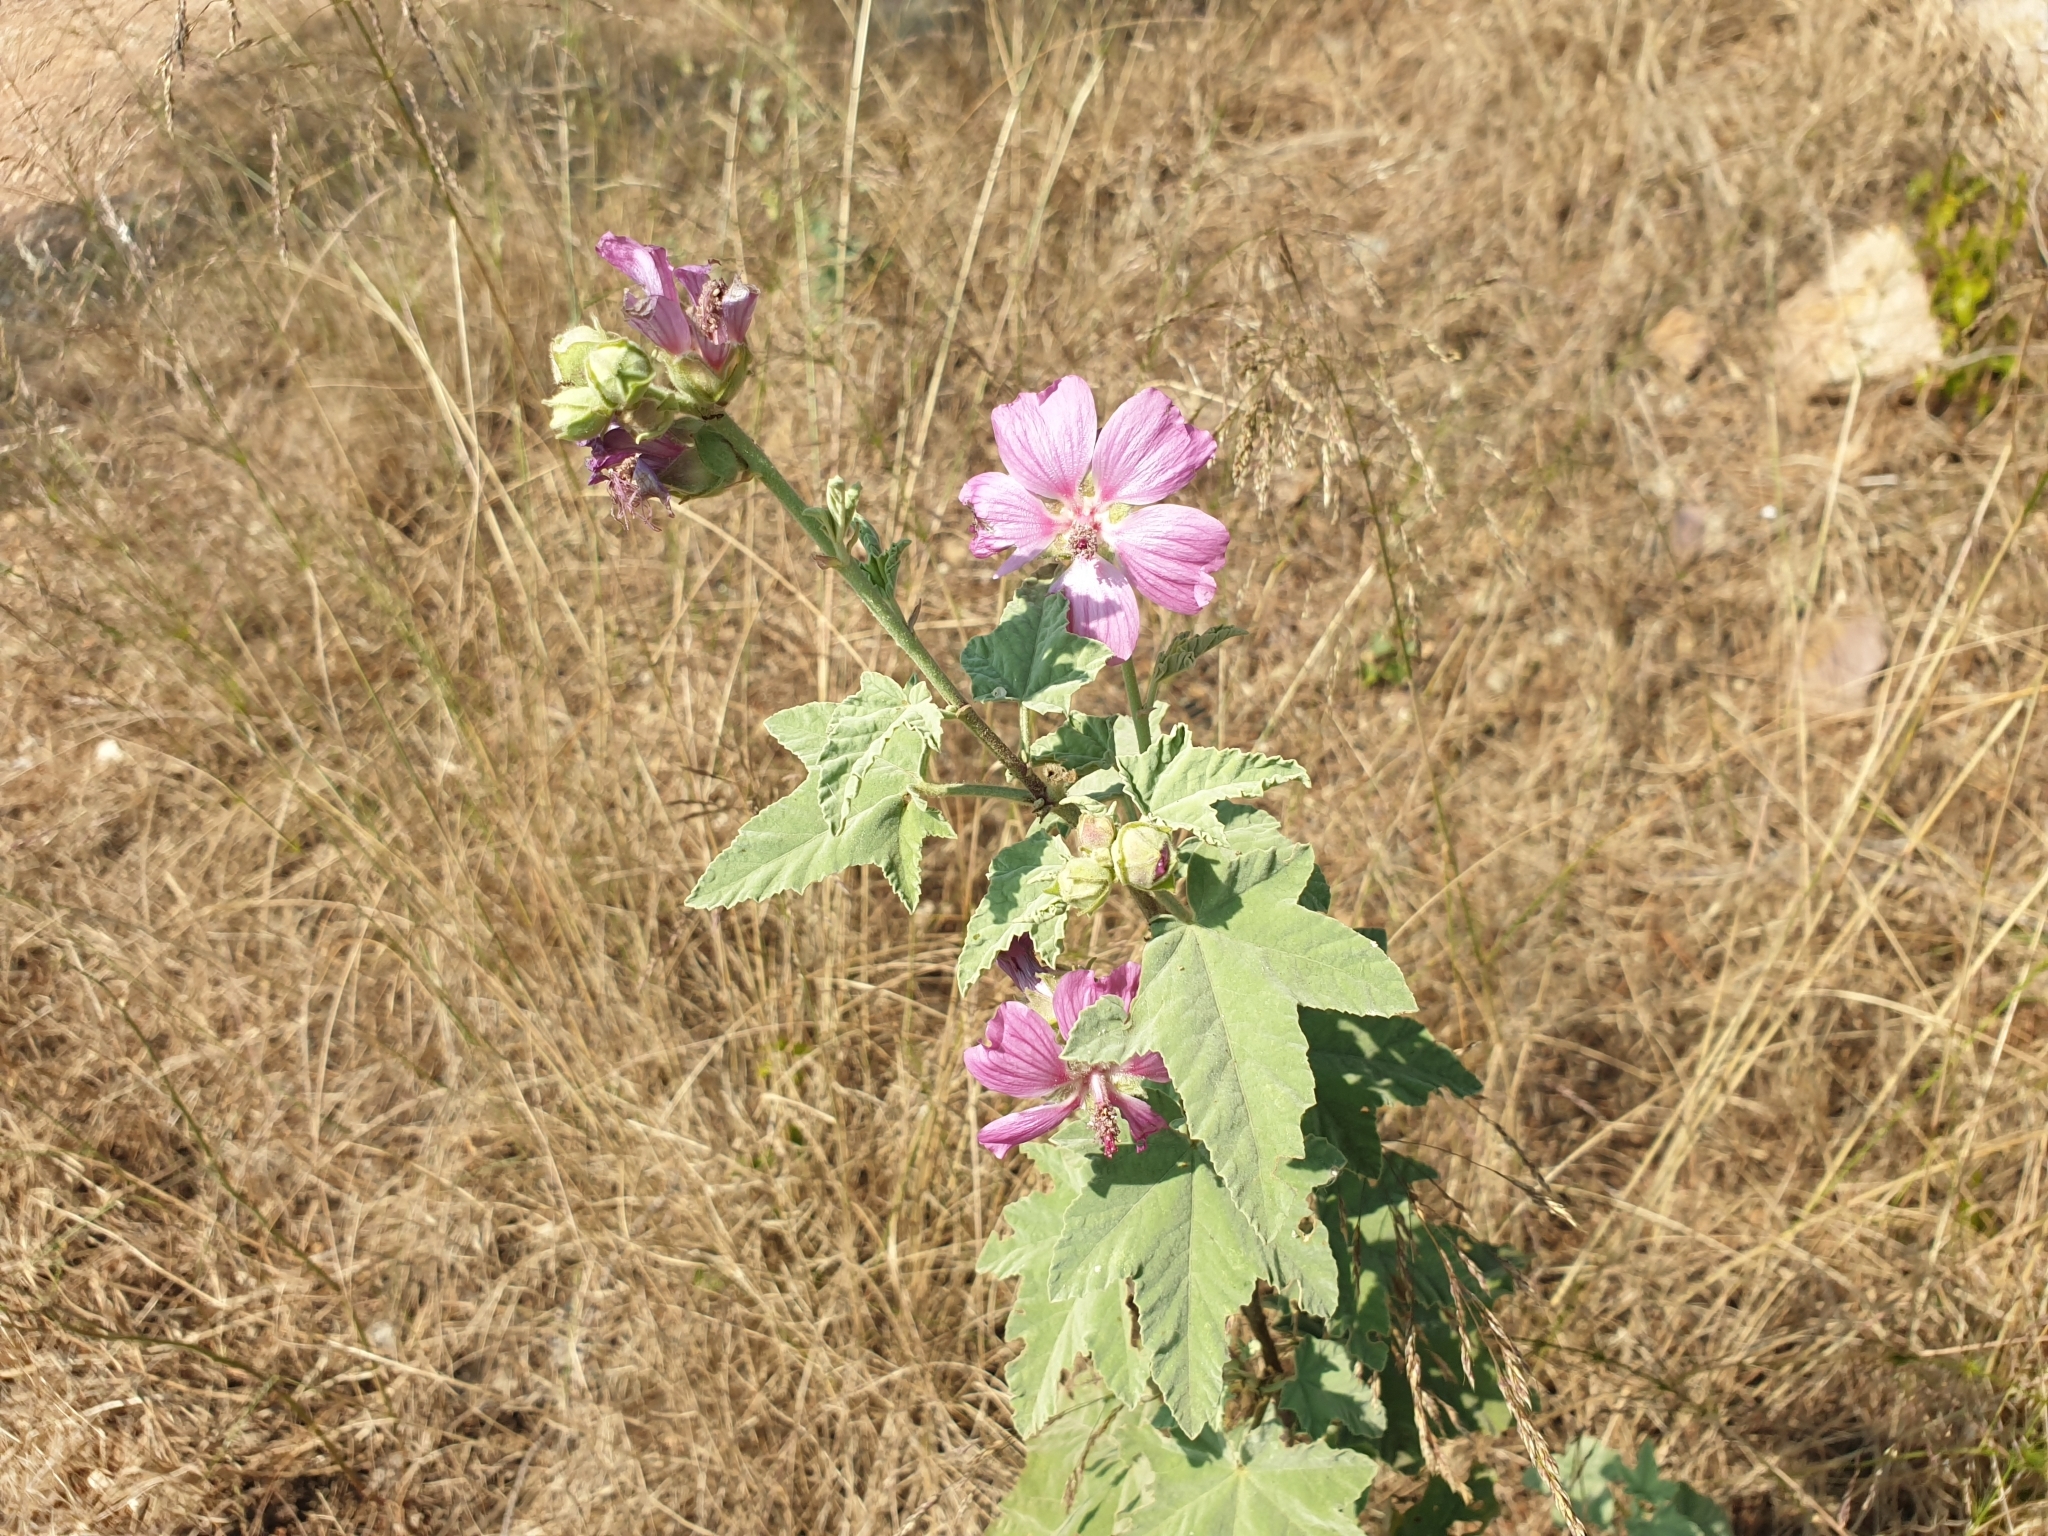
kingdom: Plantae
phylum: Tracheophyta
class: Magnoliopsida
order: Malvales
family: Malvaceae
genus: Malva
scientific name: Malva olbia
